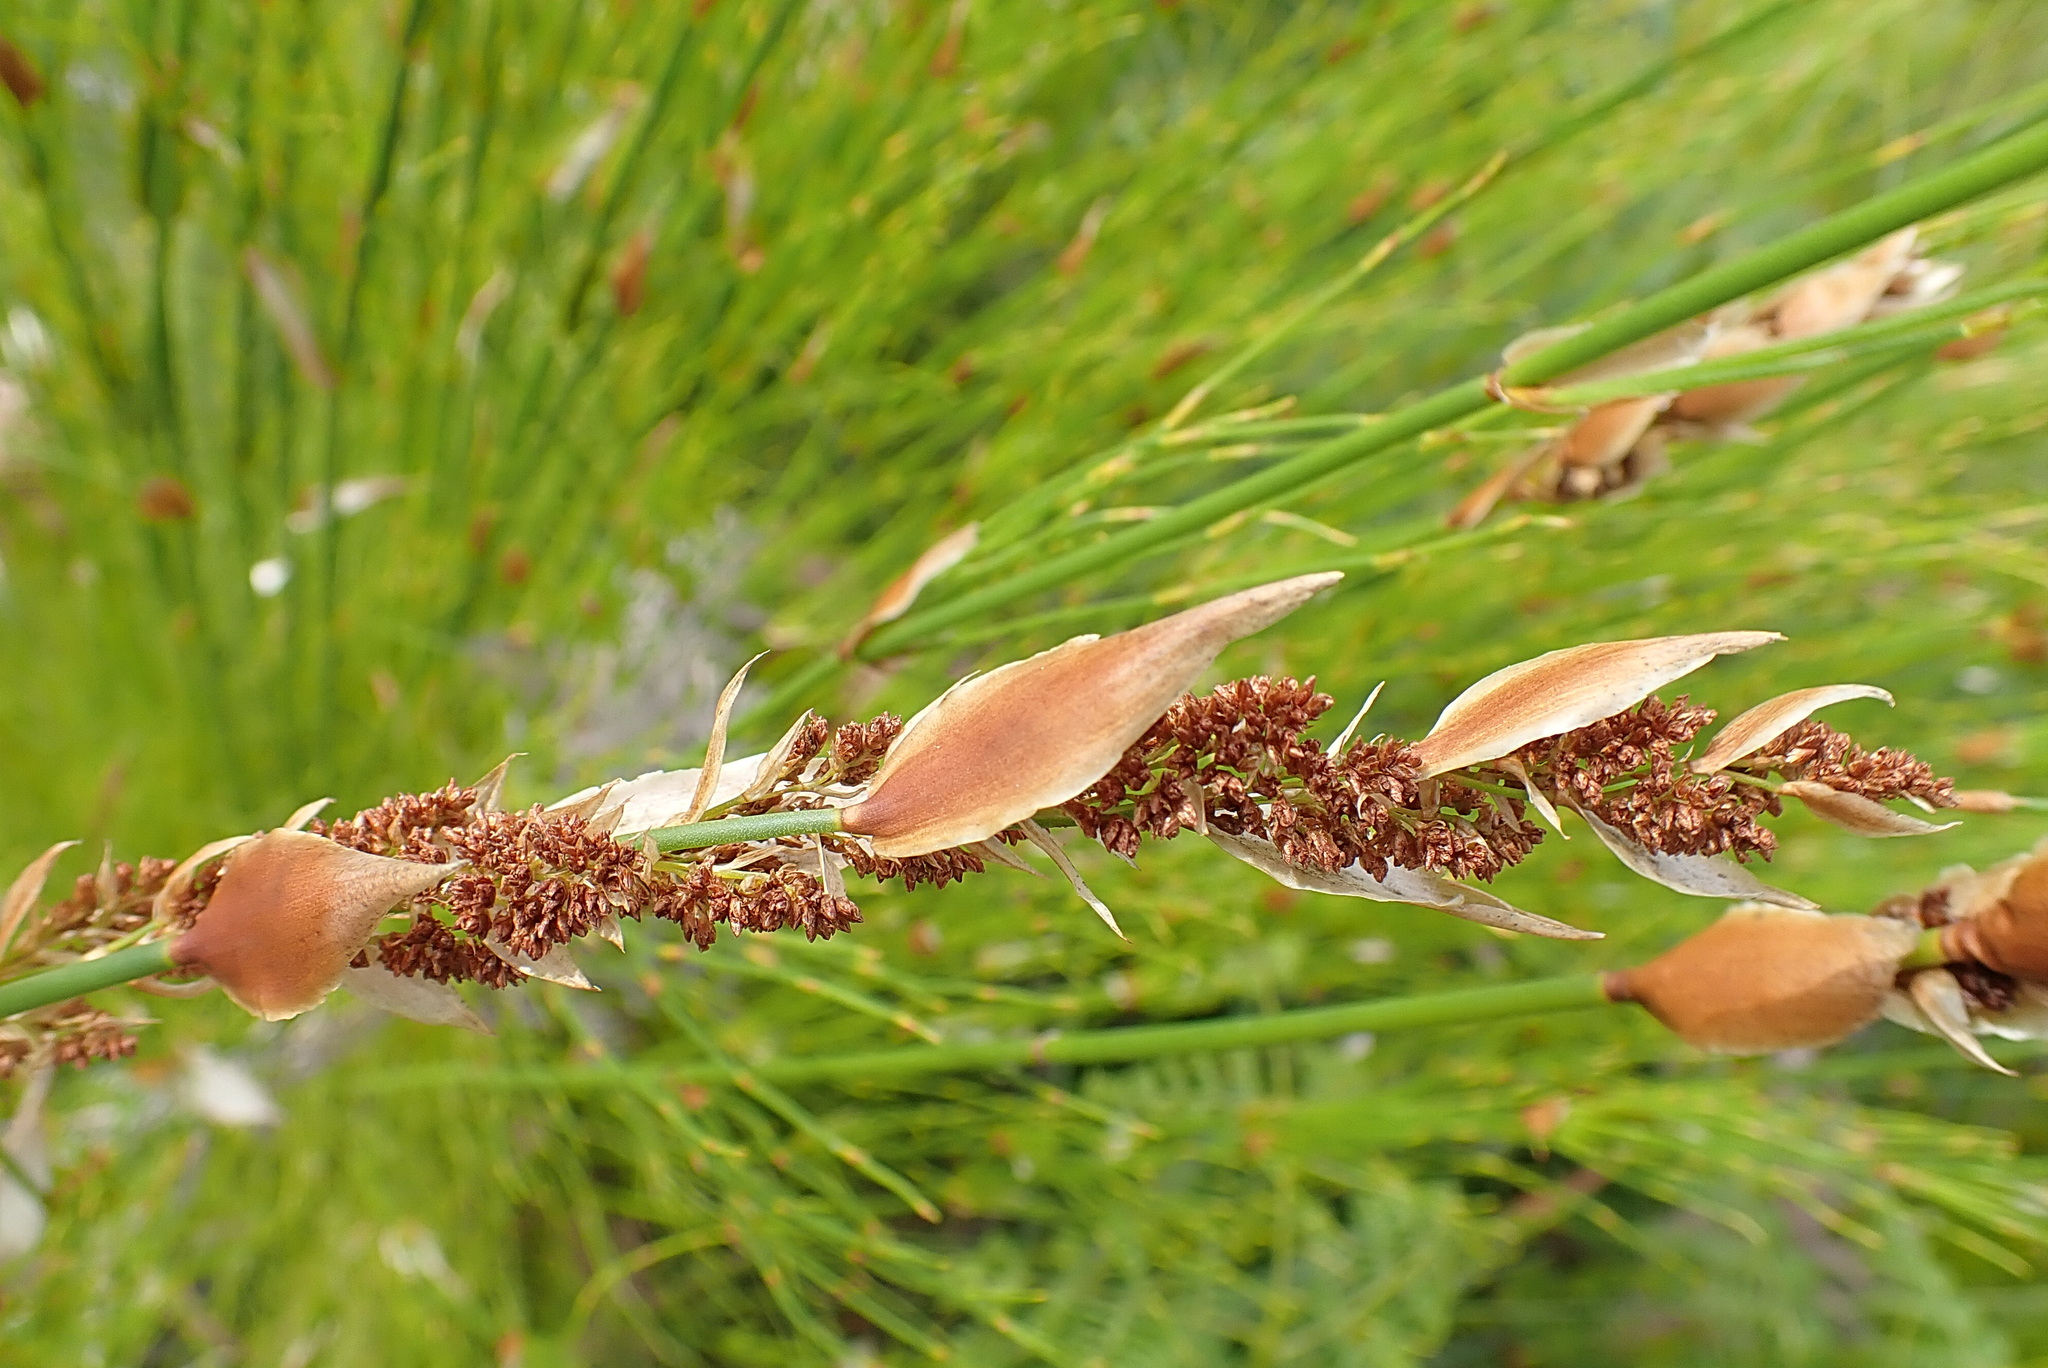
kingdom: Plantae
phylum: Tracheophyta
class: Liliopsida
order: Poales
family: Restionaceae
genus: Elegia
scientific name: Elegia equisetacea
